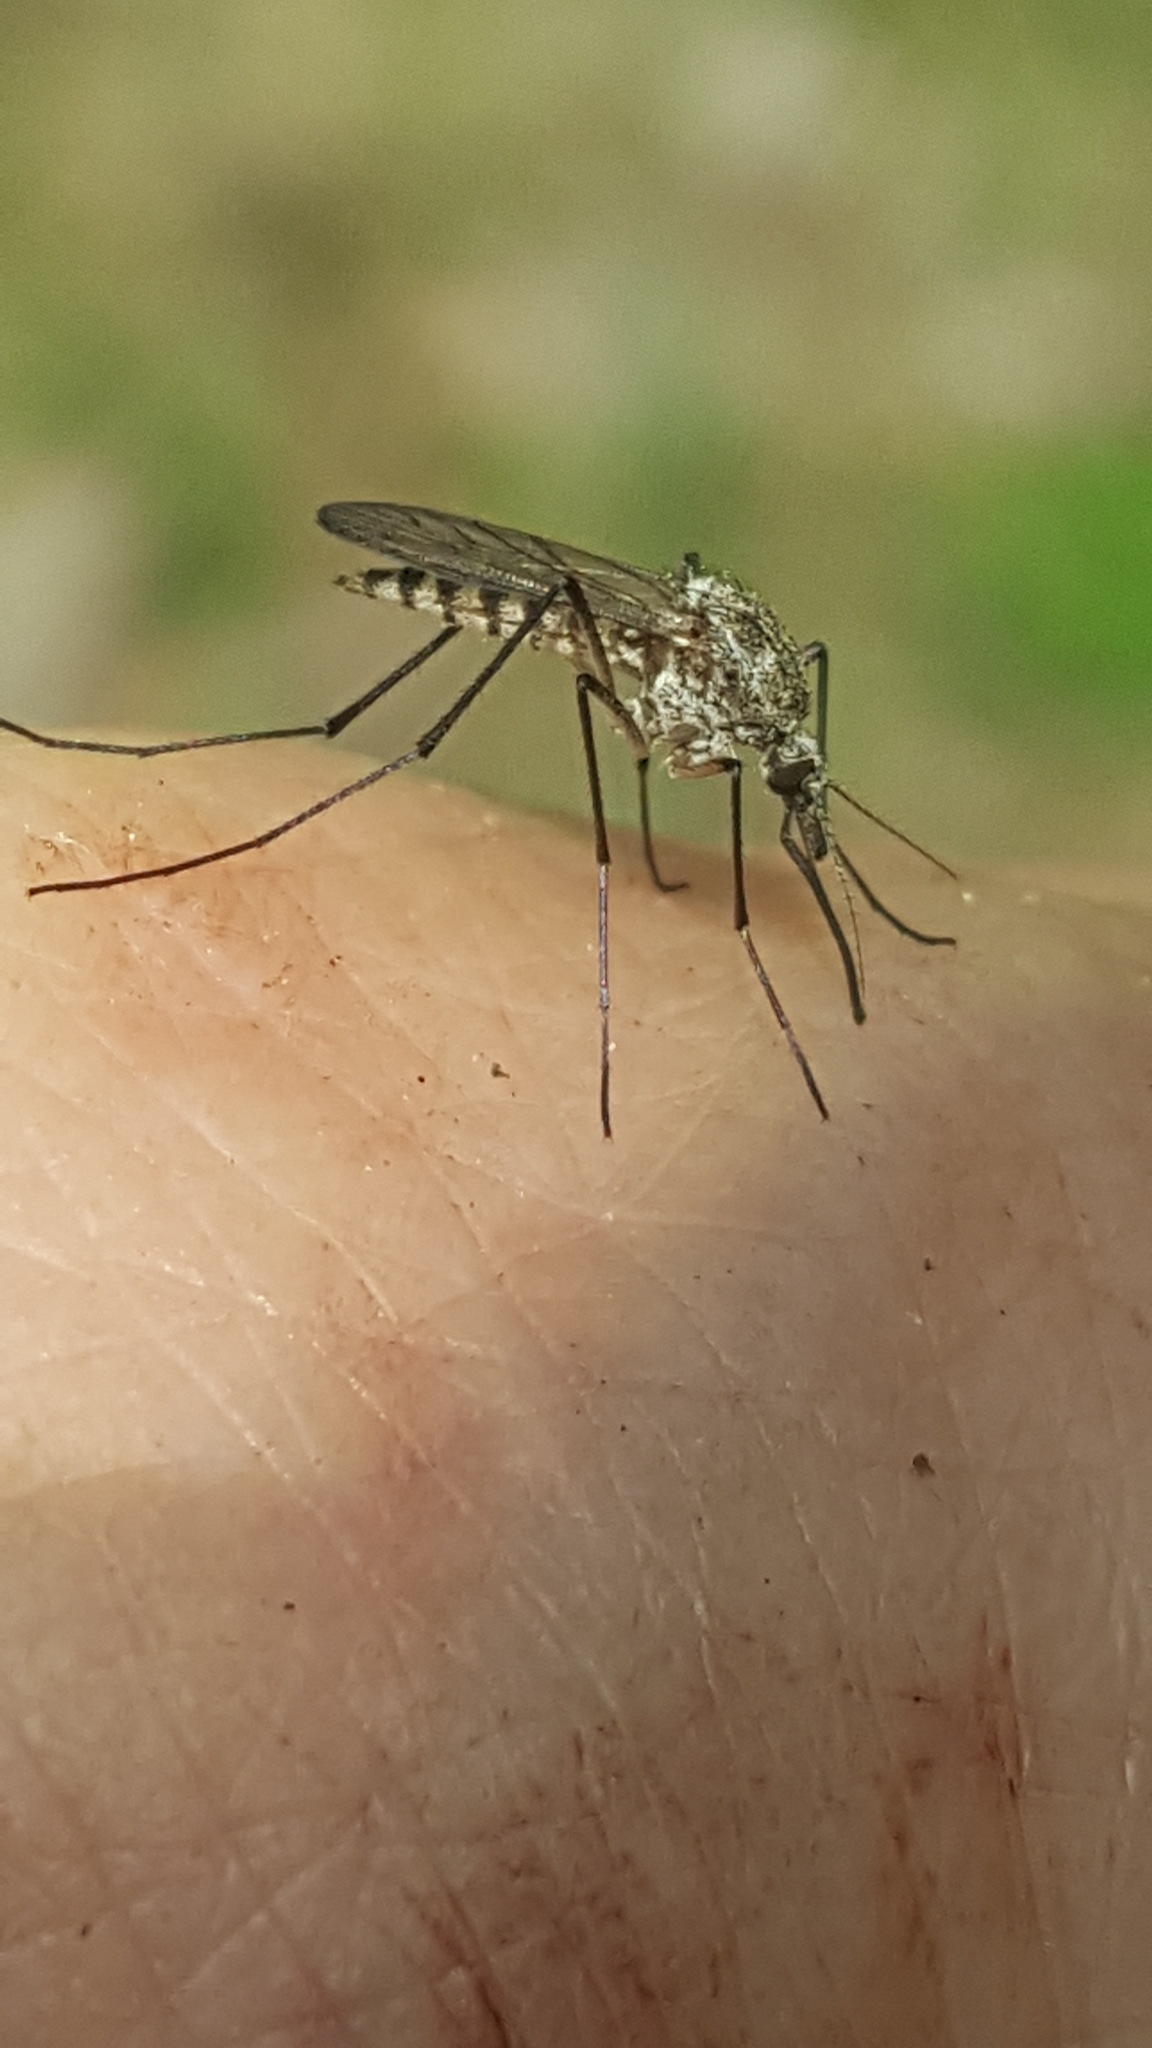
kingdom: Animalia
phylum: Arthropoda
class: Insecta
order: Diptera
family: Culicidae
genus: Aedes
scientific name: Aedes provocans
